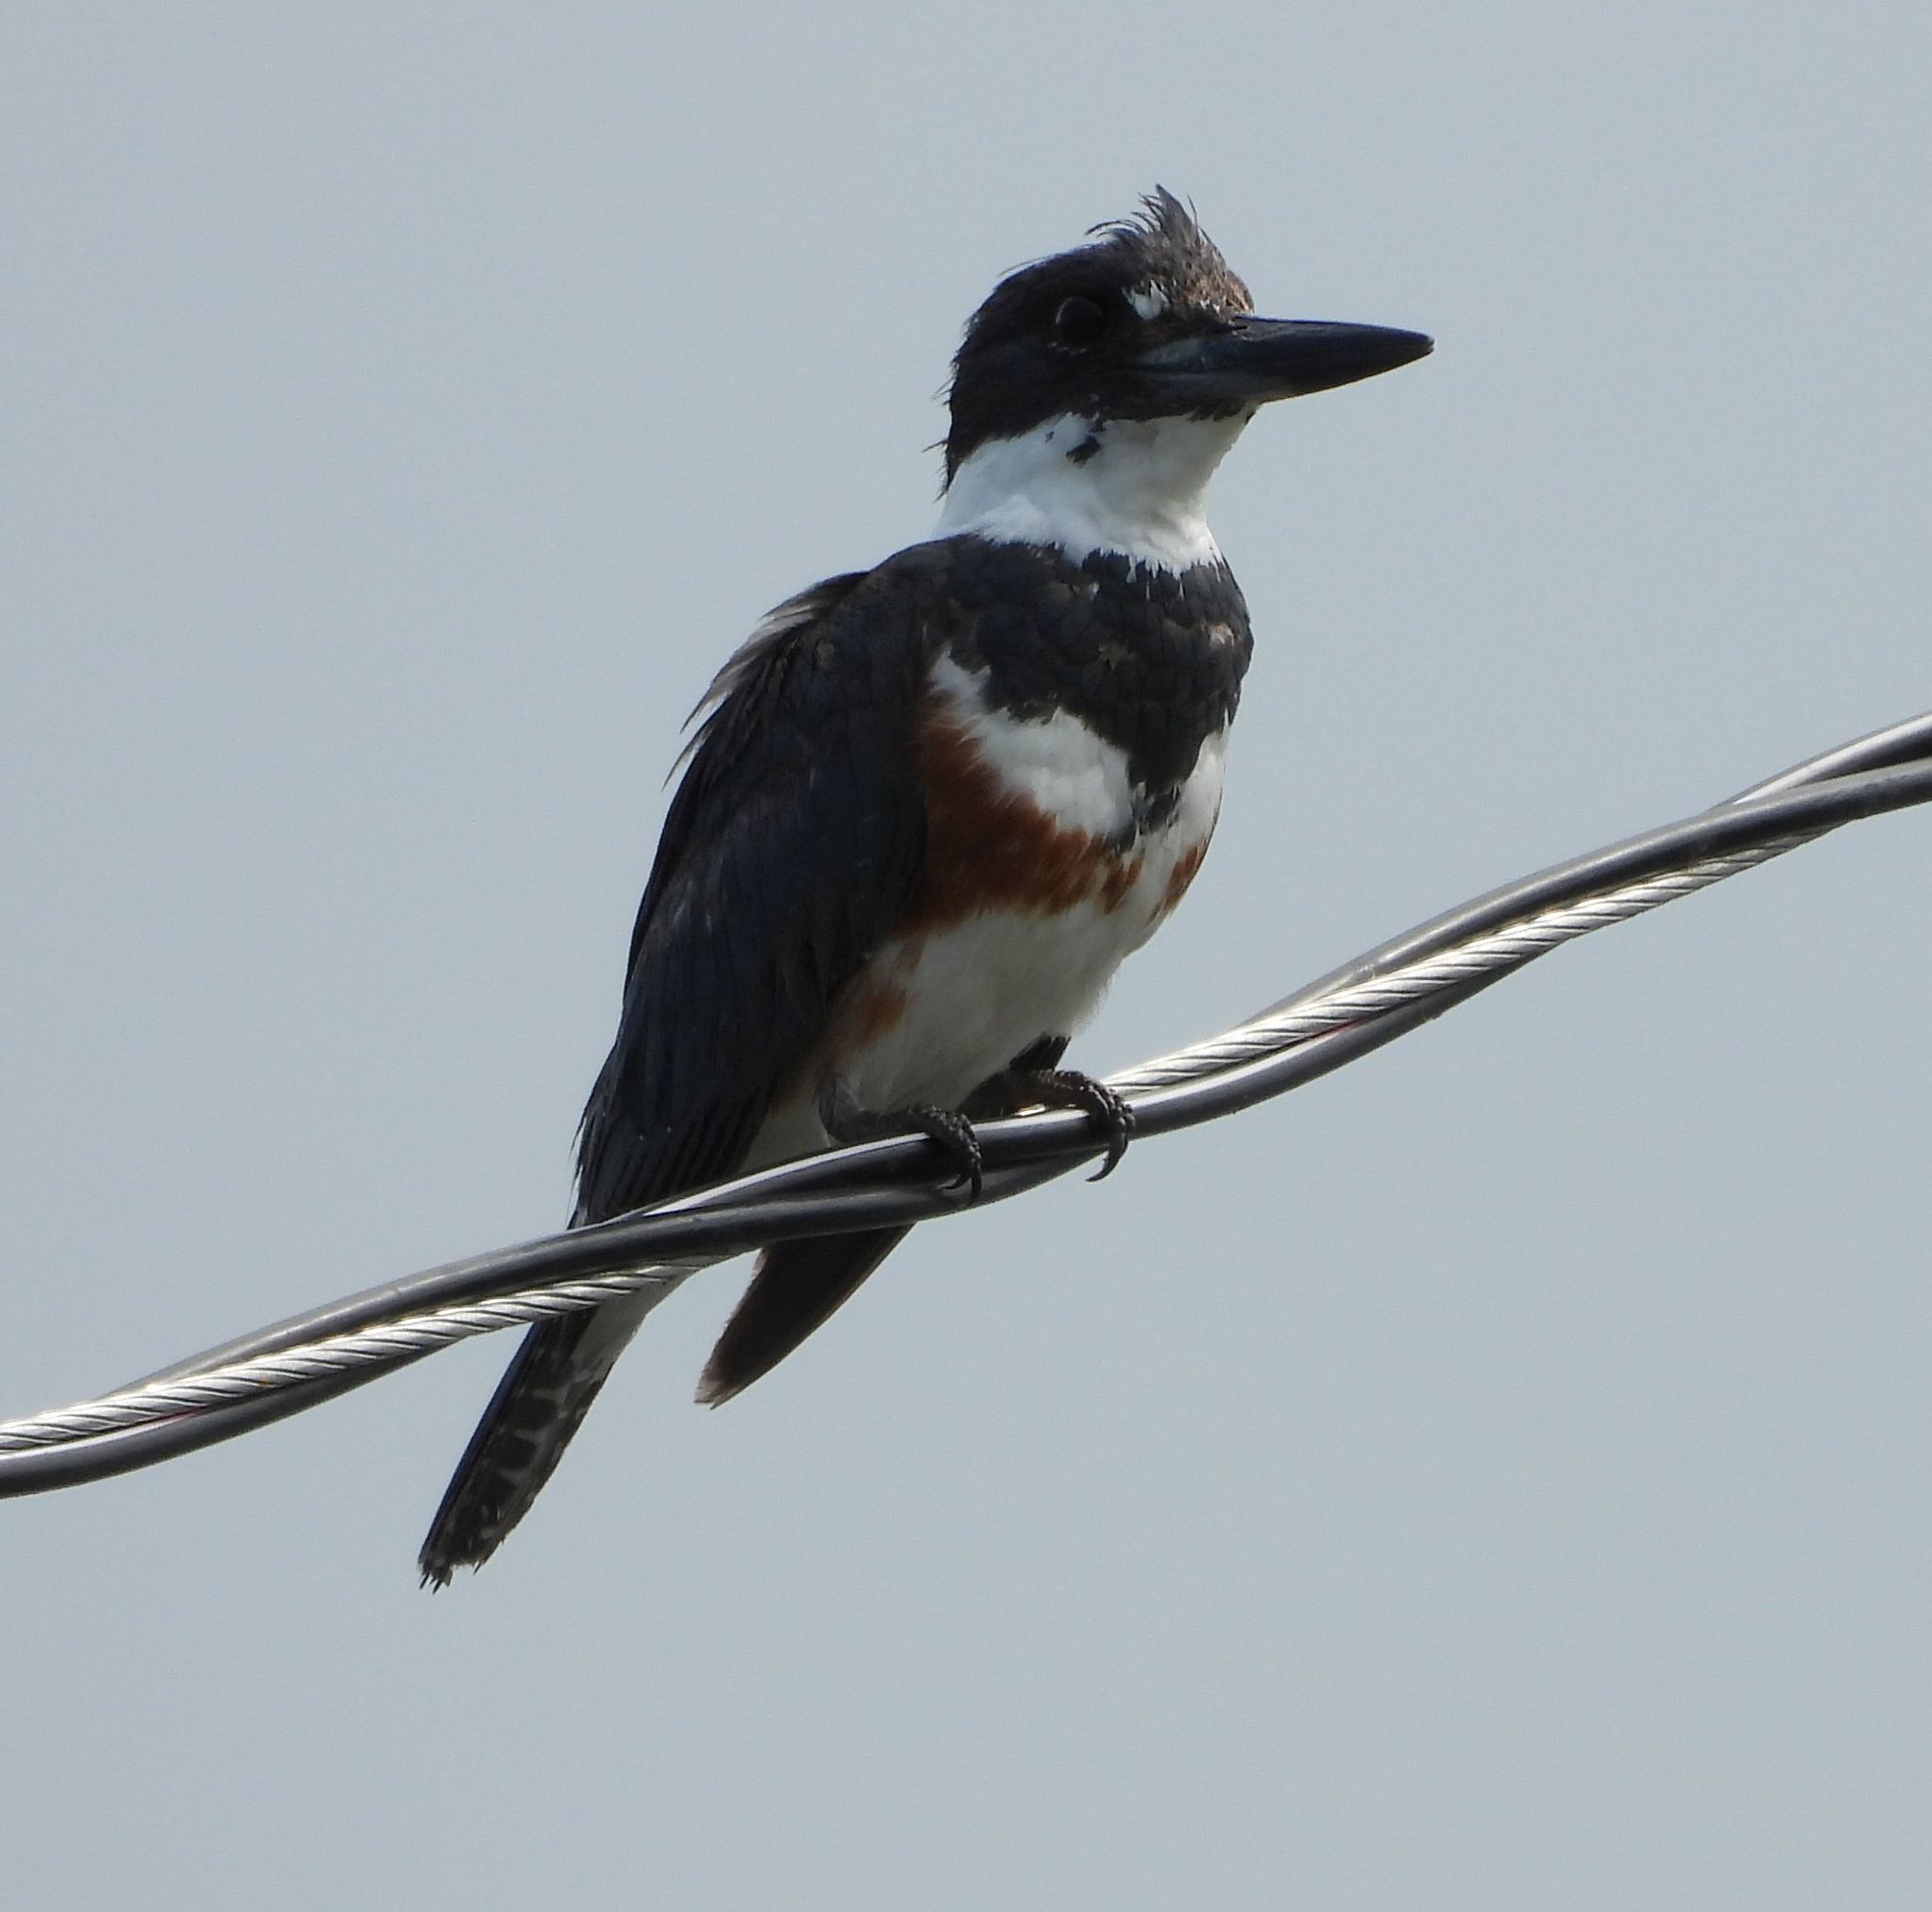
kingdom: Animalia
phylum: Chordata
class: Aves
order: Coraciiformes
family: Alcedinidae
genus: Megaceryle
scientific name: Megaceryle alcyon
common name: Belted kingfisher
